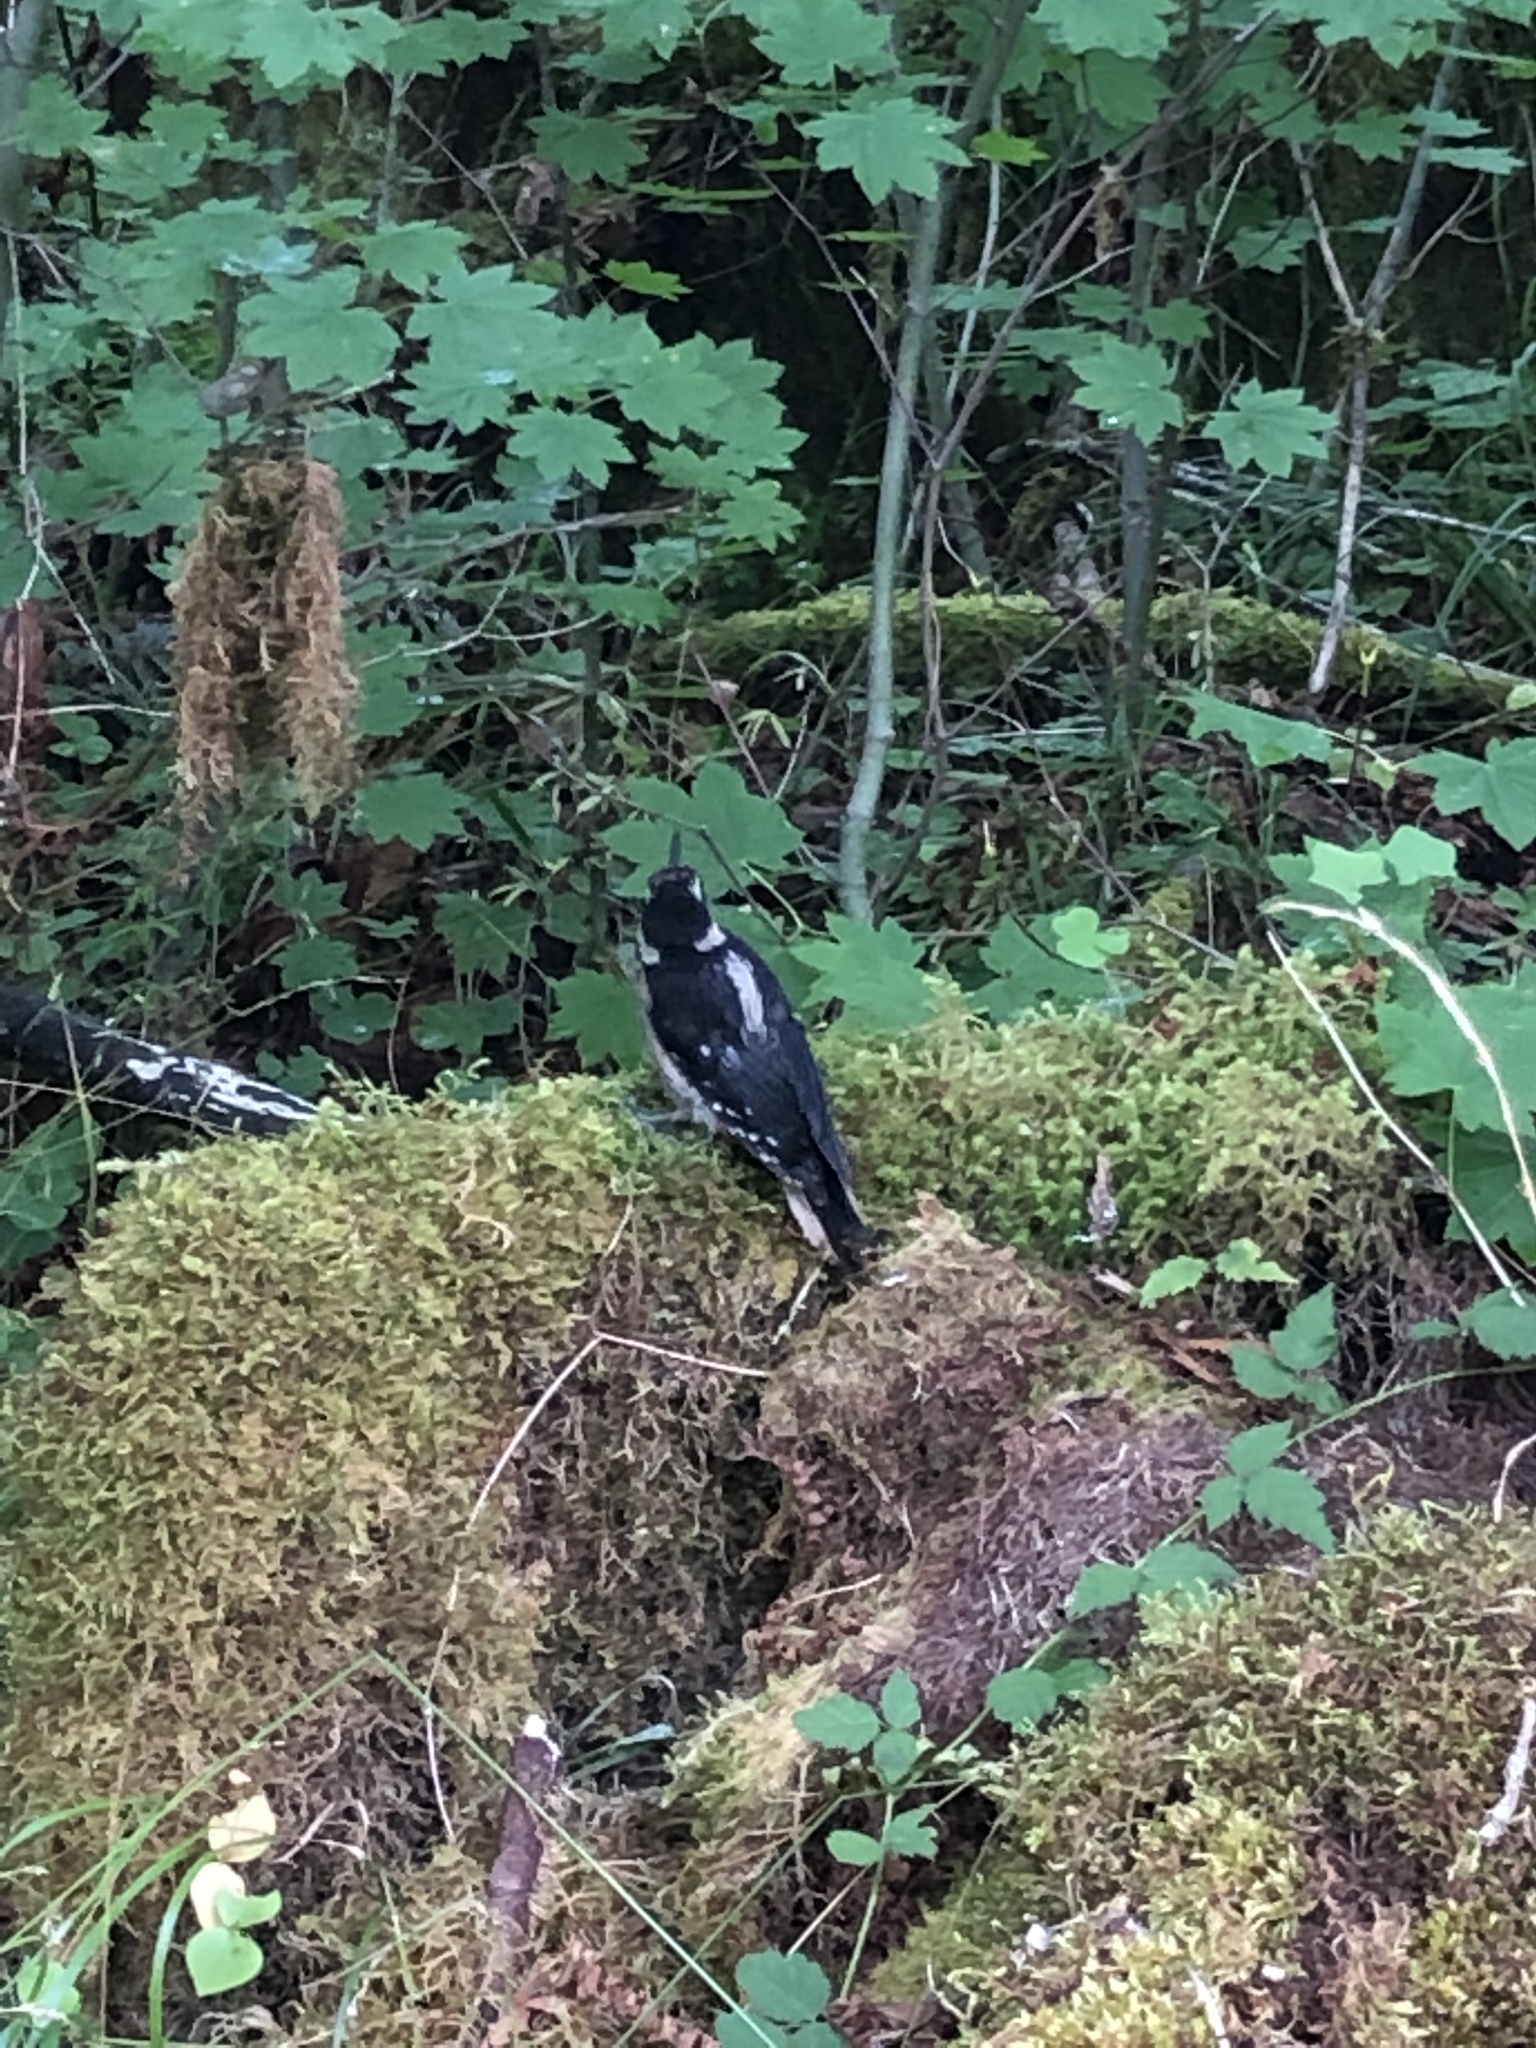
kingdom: Animalia
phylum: Chordata
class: Aves
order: Piciformes
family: Picidae
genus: Leuconotopicus
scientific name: Leuconotopicus villosus
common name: Hairy woodpecker
